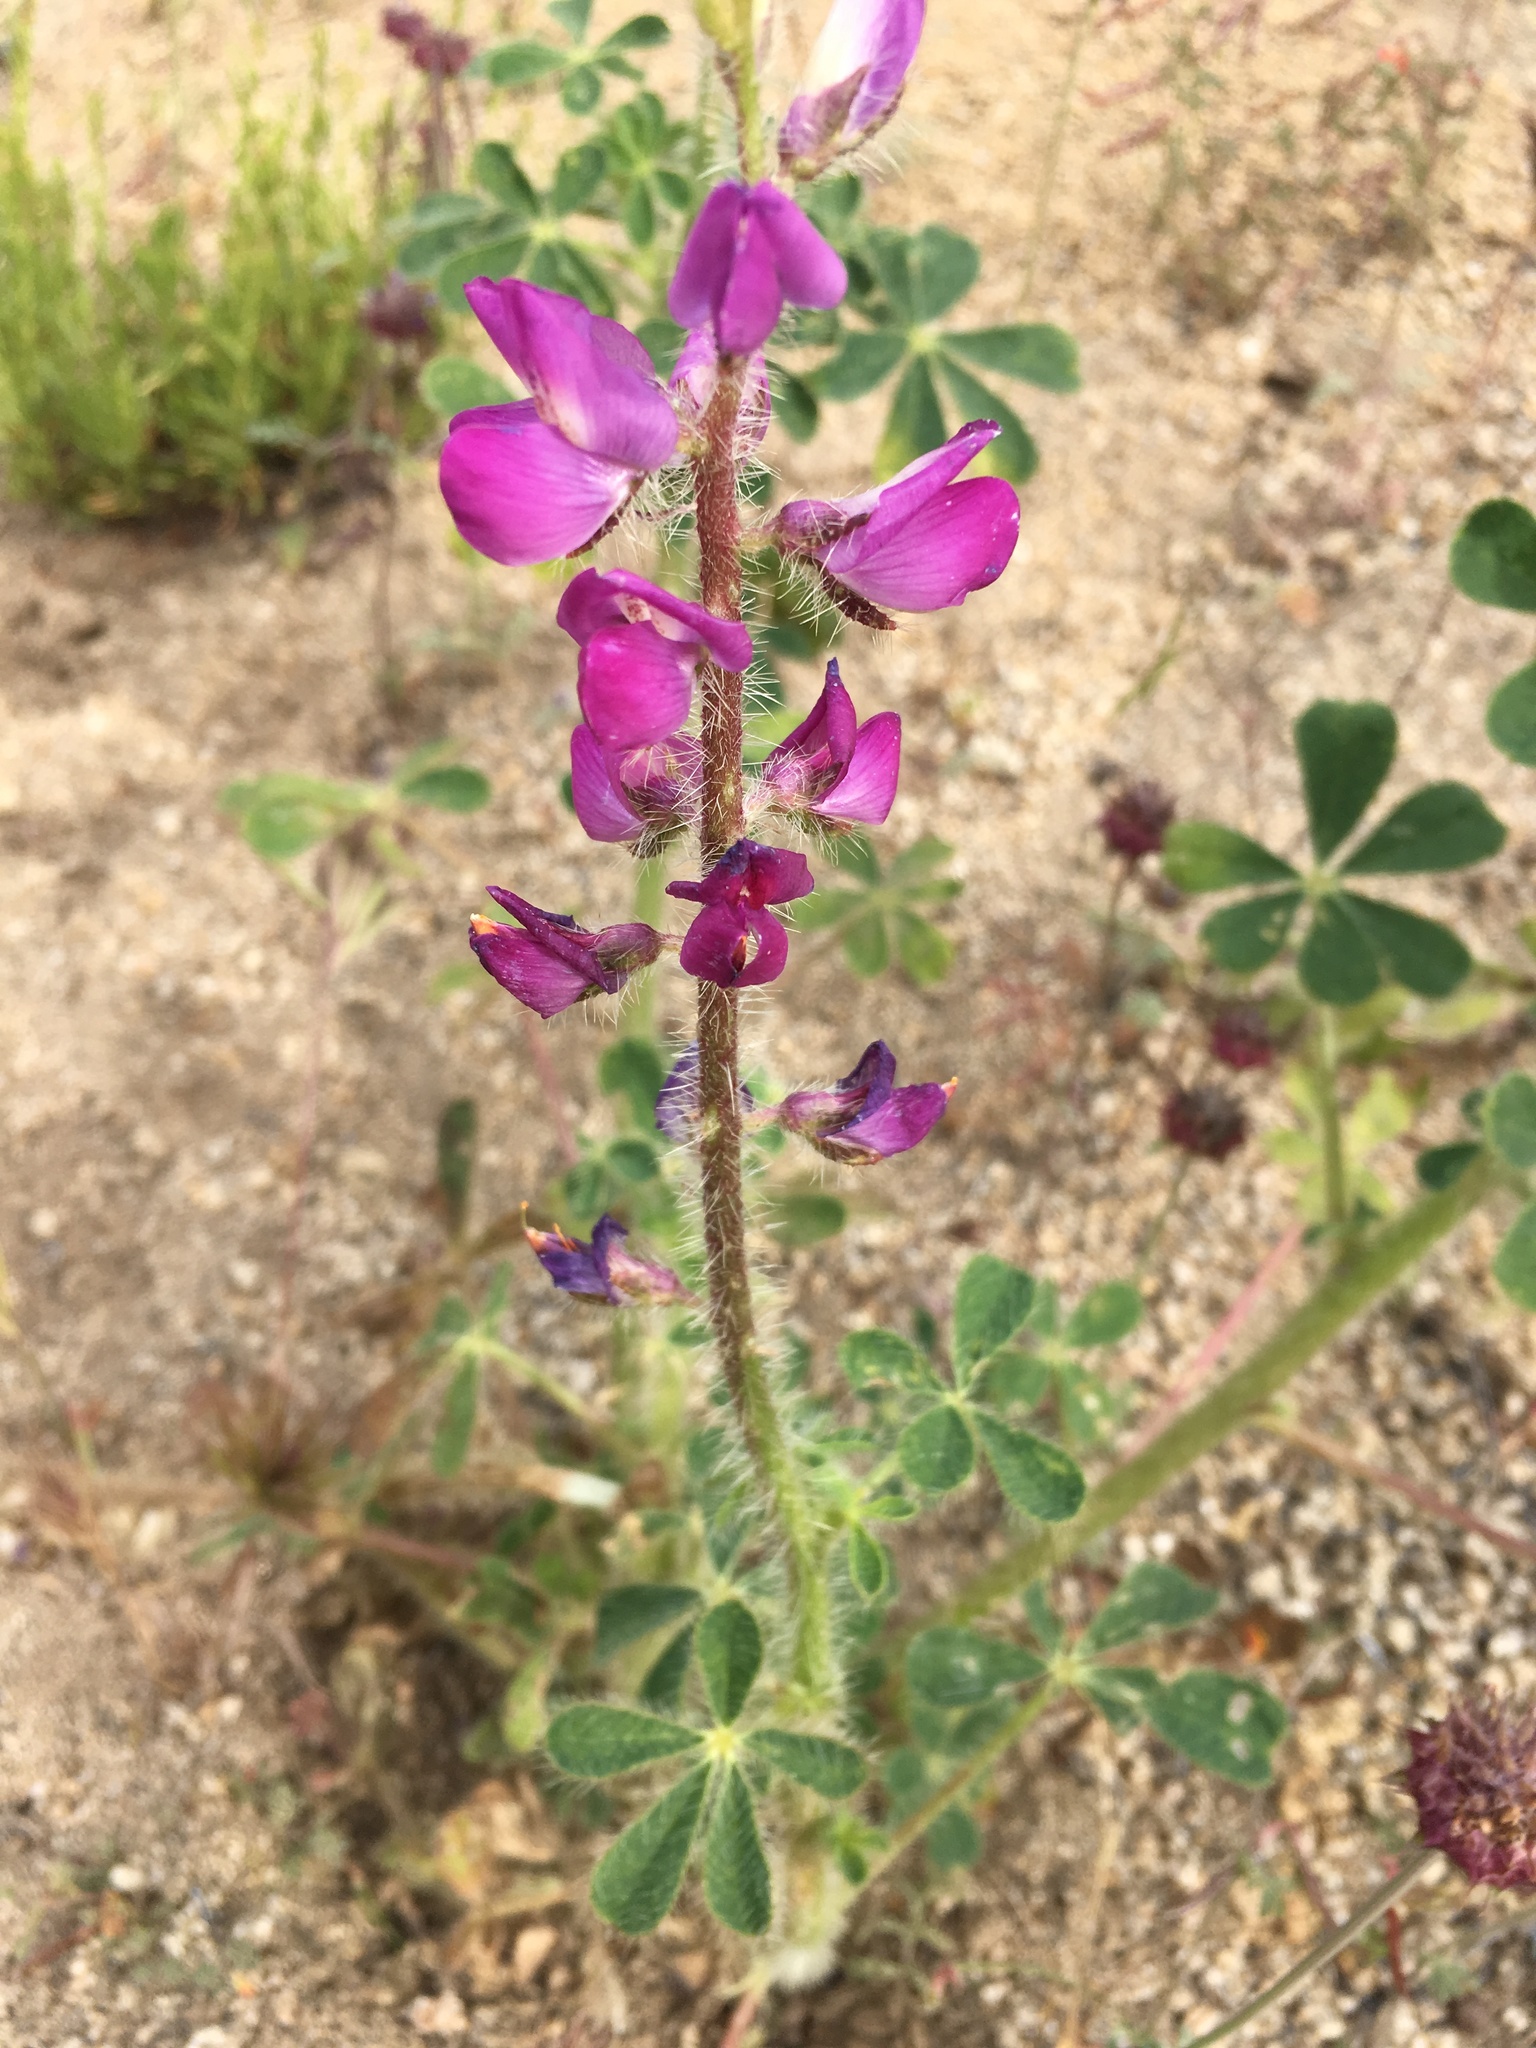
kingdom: Plantae
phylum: Tracheophyta
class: Magnoliopsida
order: Fabales
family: Fabaceae
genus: Lupinus
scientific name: Lupinus hirsutissimus
